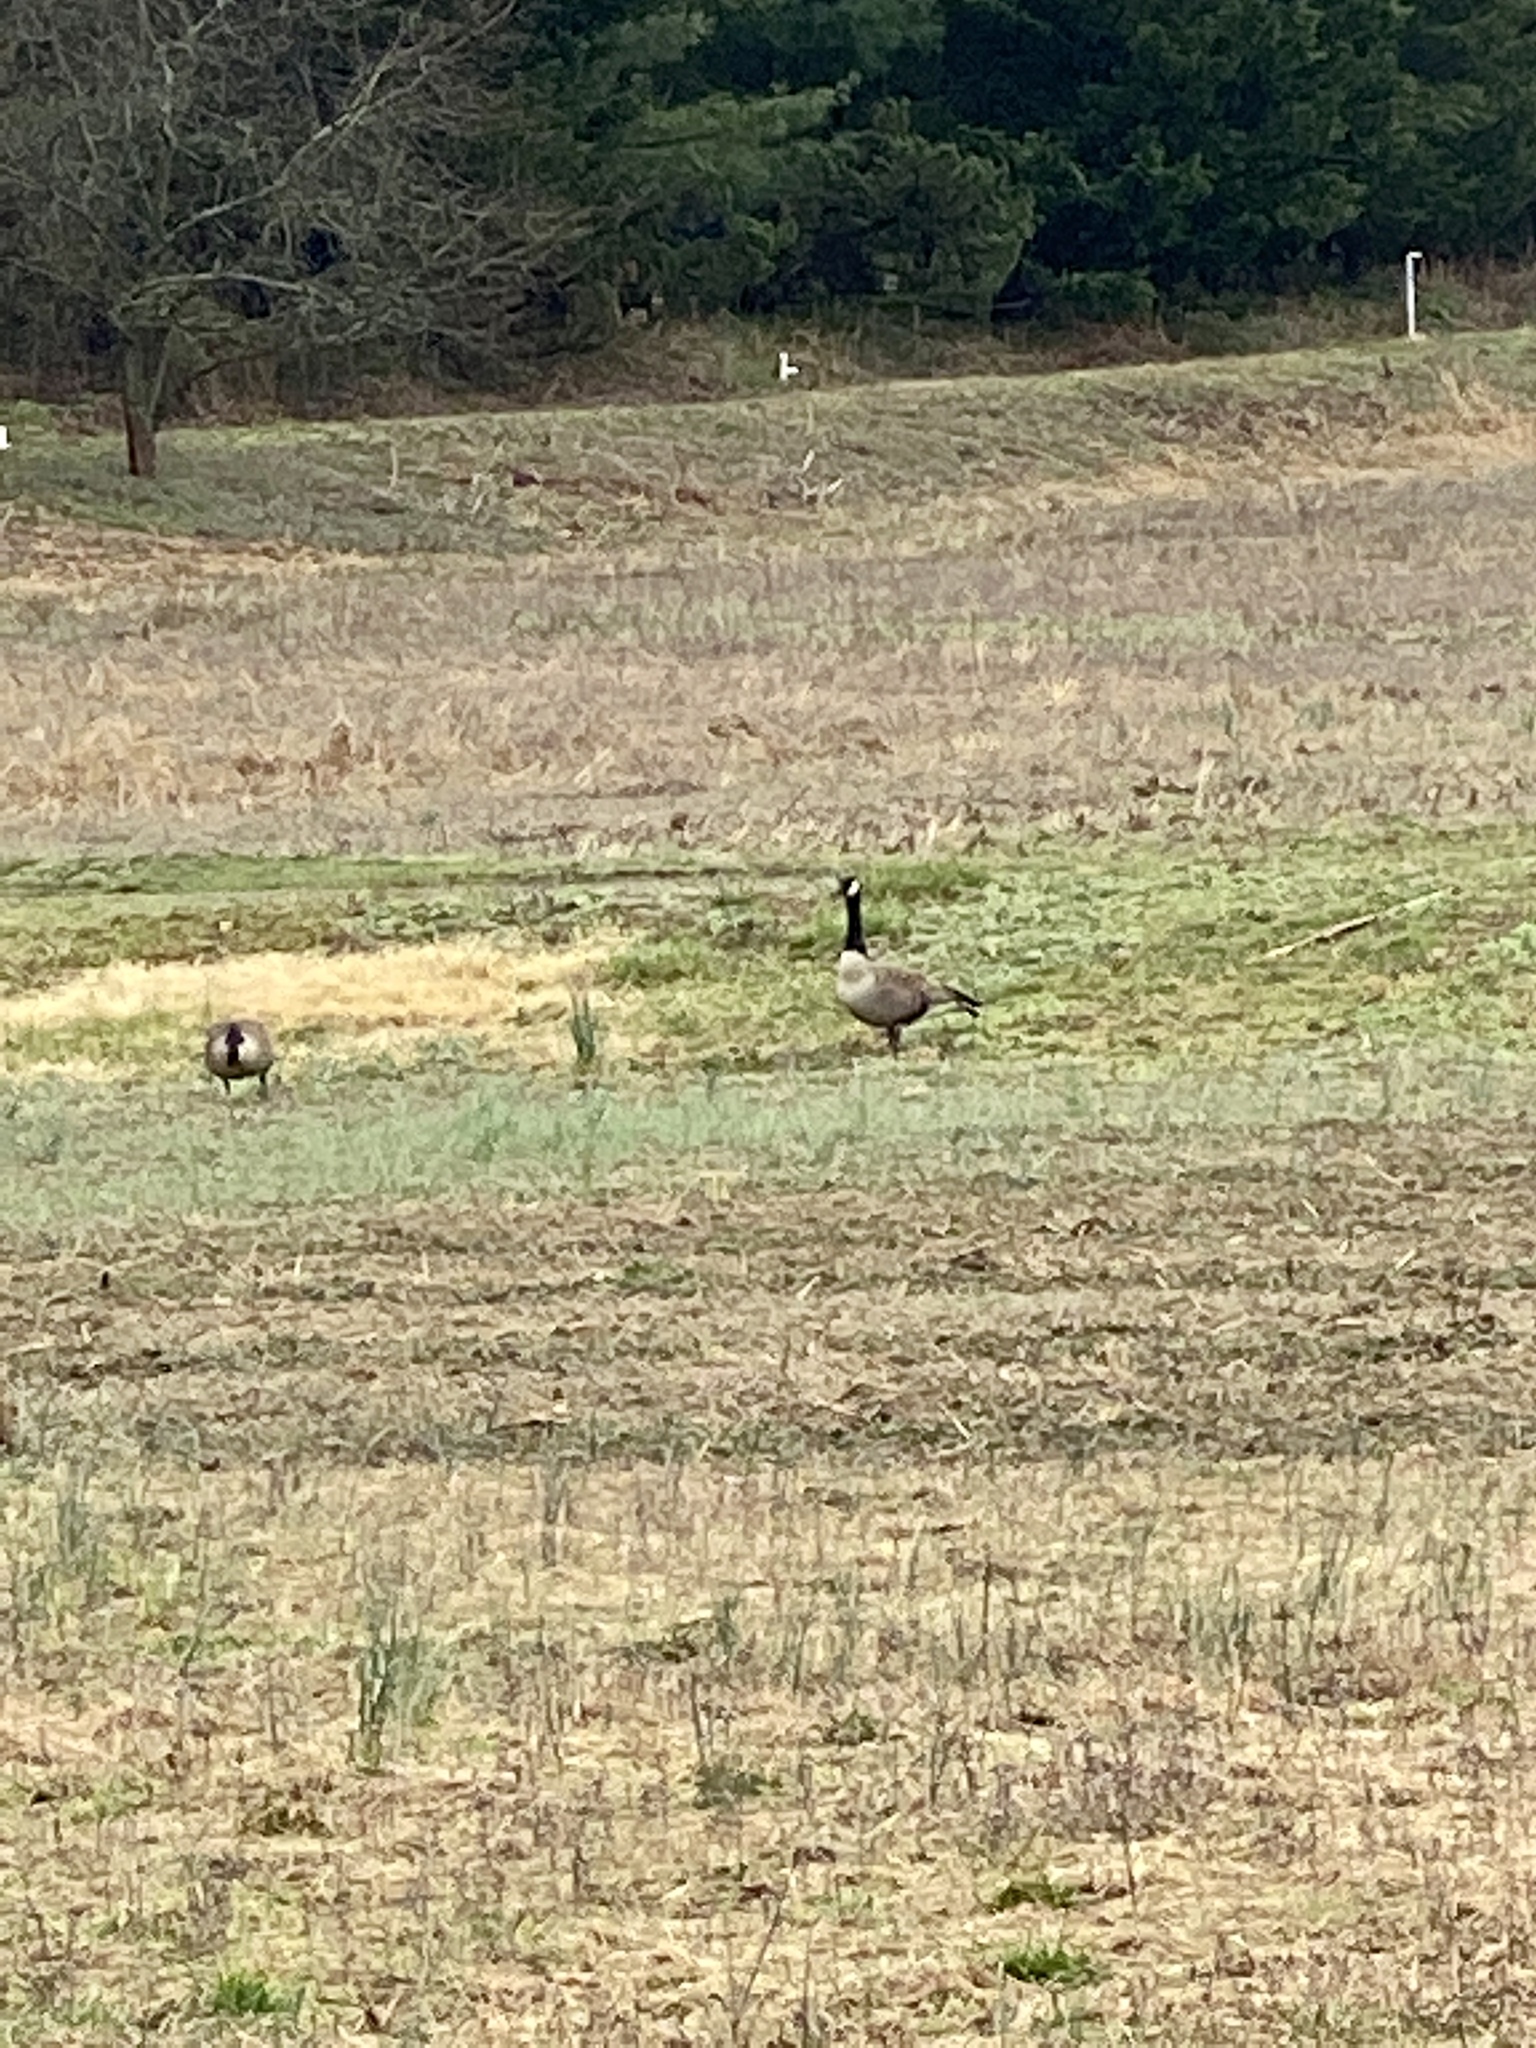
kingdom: Animalia
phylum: Chordata
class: Aves
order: Anseriformes
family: Anatidae
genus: Branta
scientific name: Branta canadensis
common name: Canada goose
